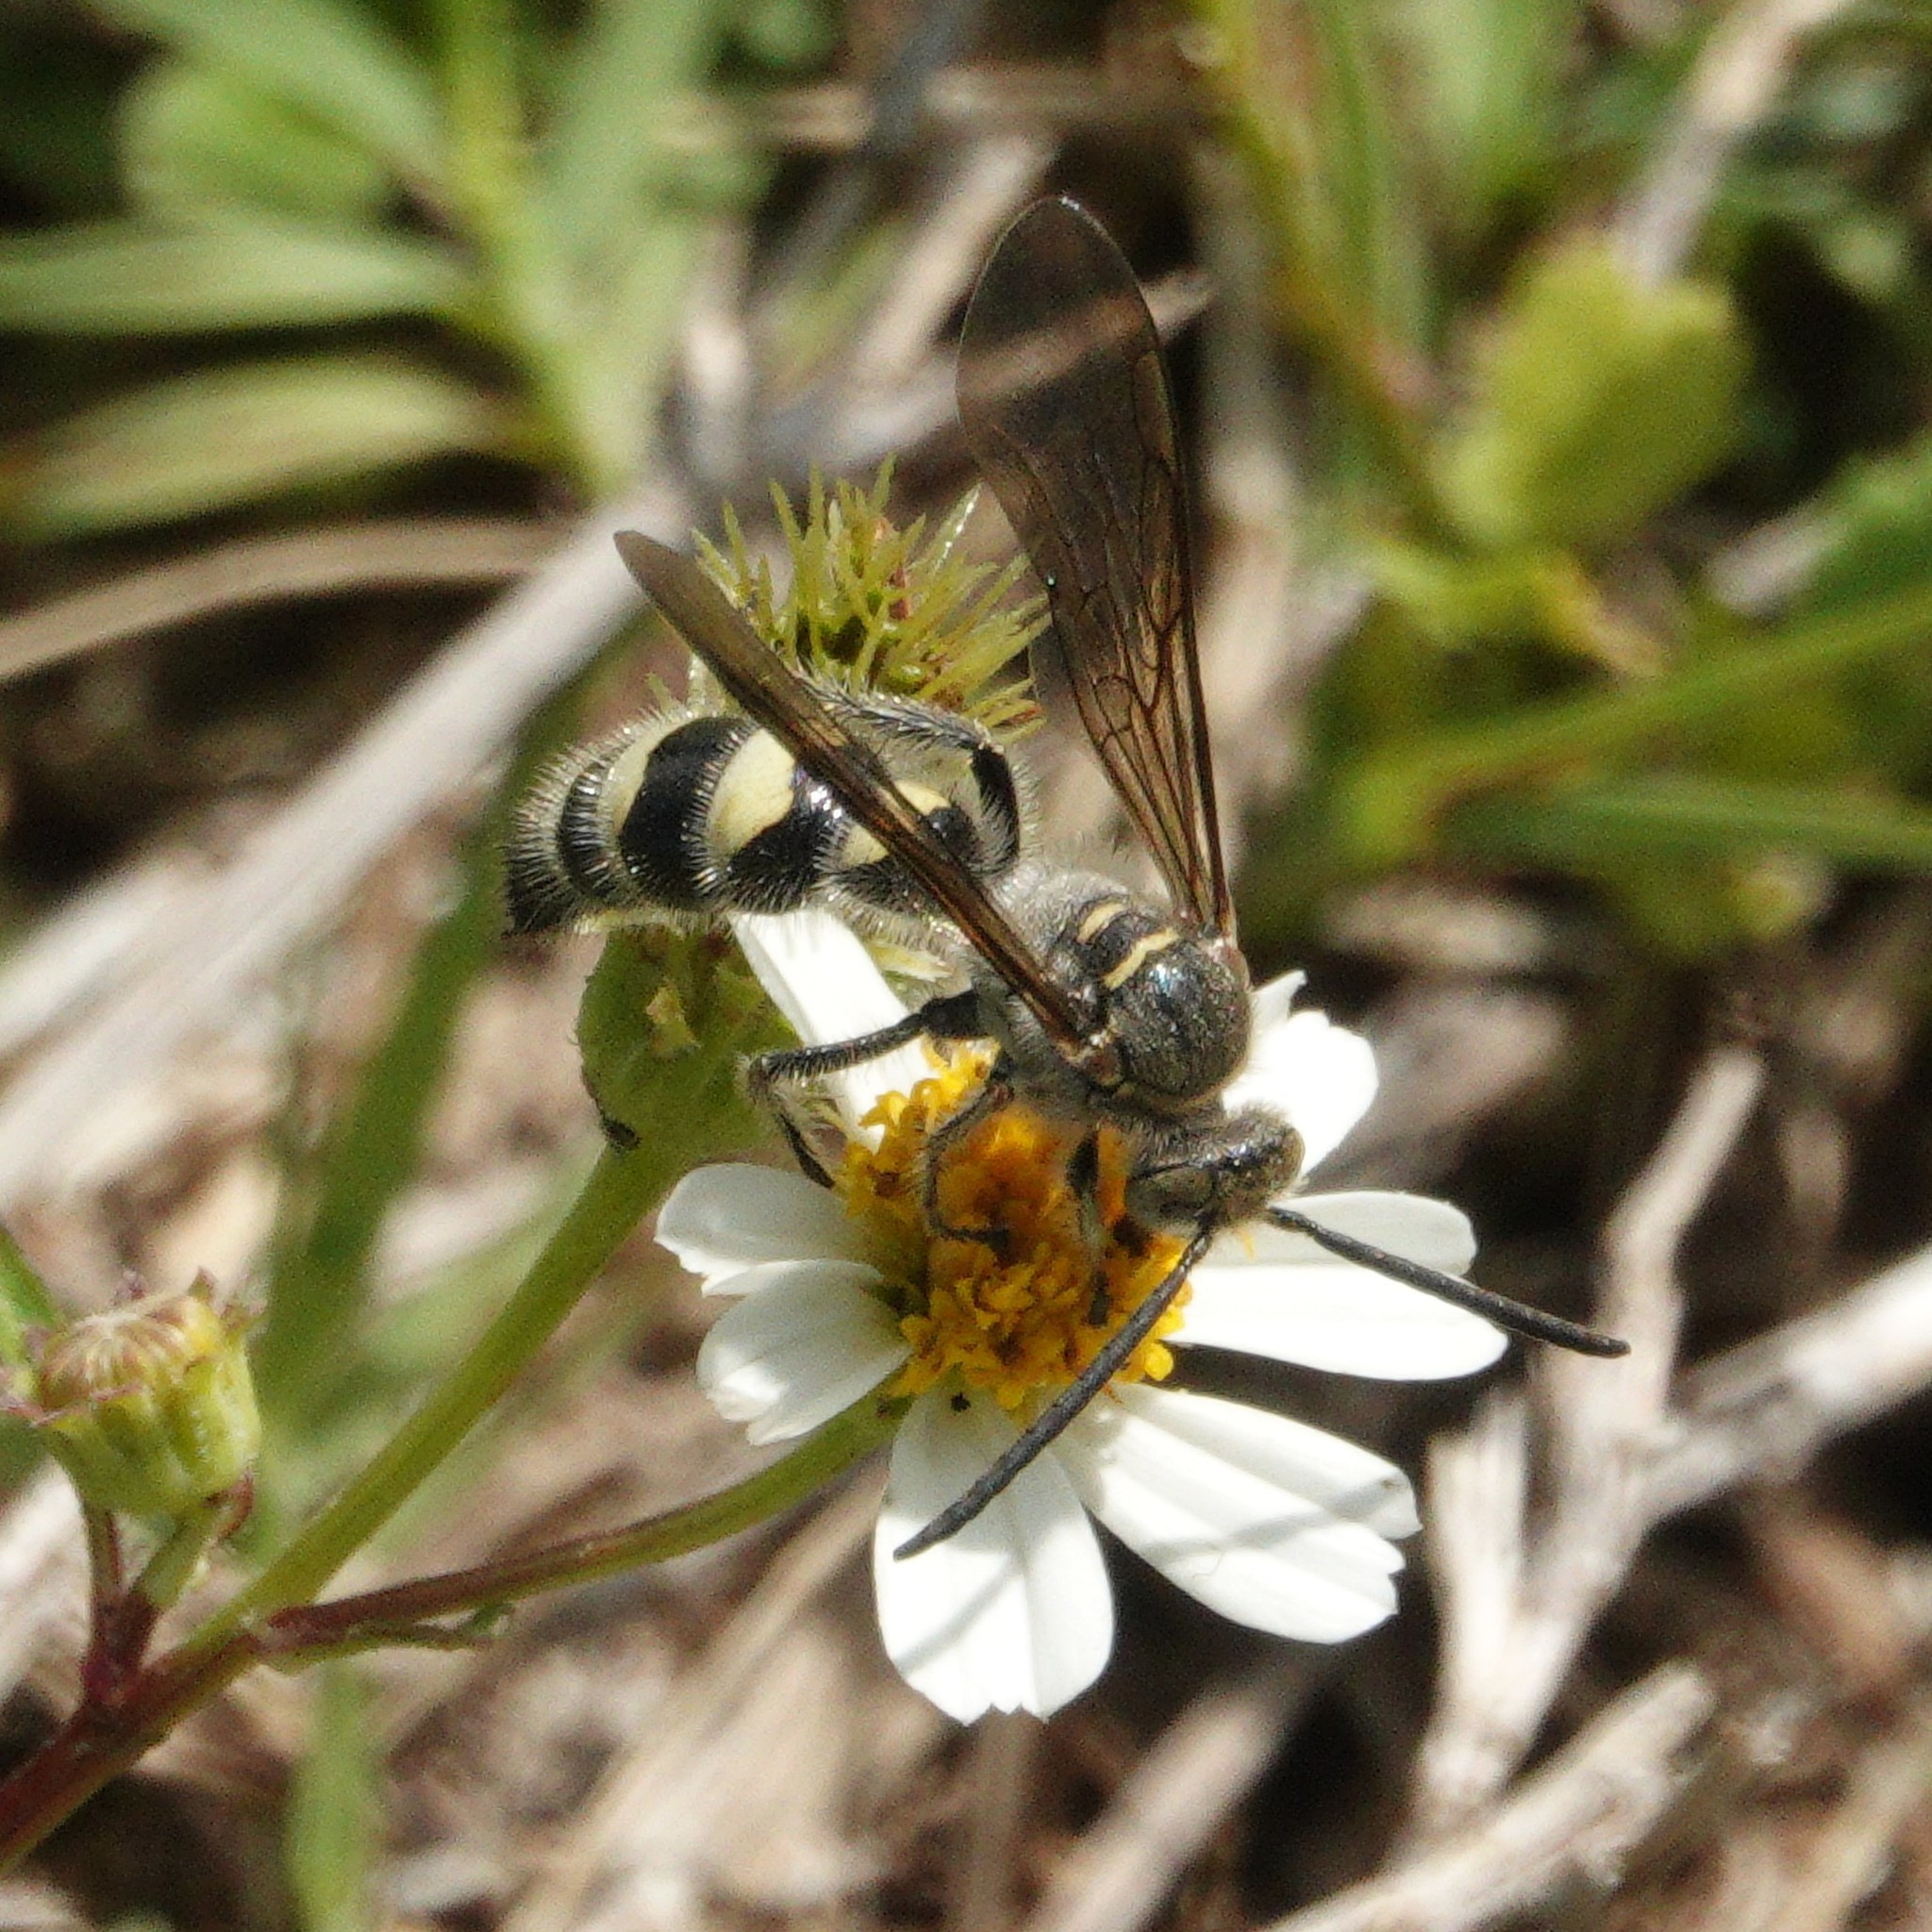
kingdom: Animalia
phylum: Arthropoda
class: Insecta
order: Hymenoptera
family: Scoliidae
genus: Dielis
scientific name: Dielis
